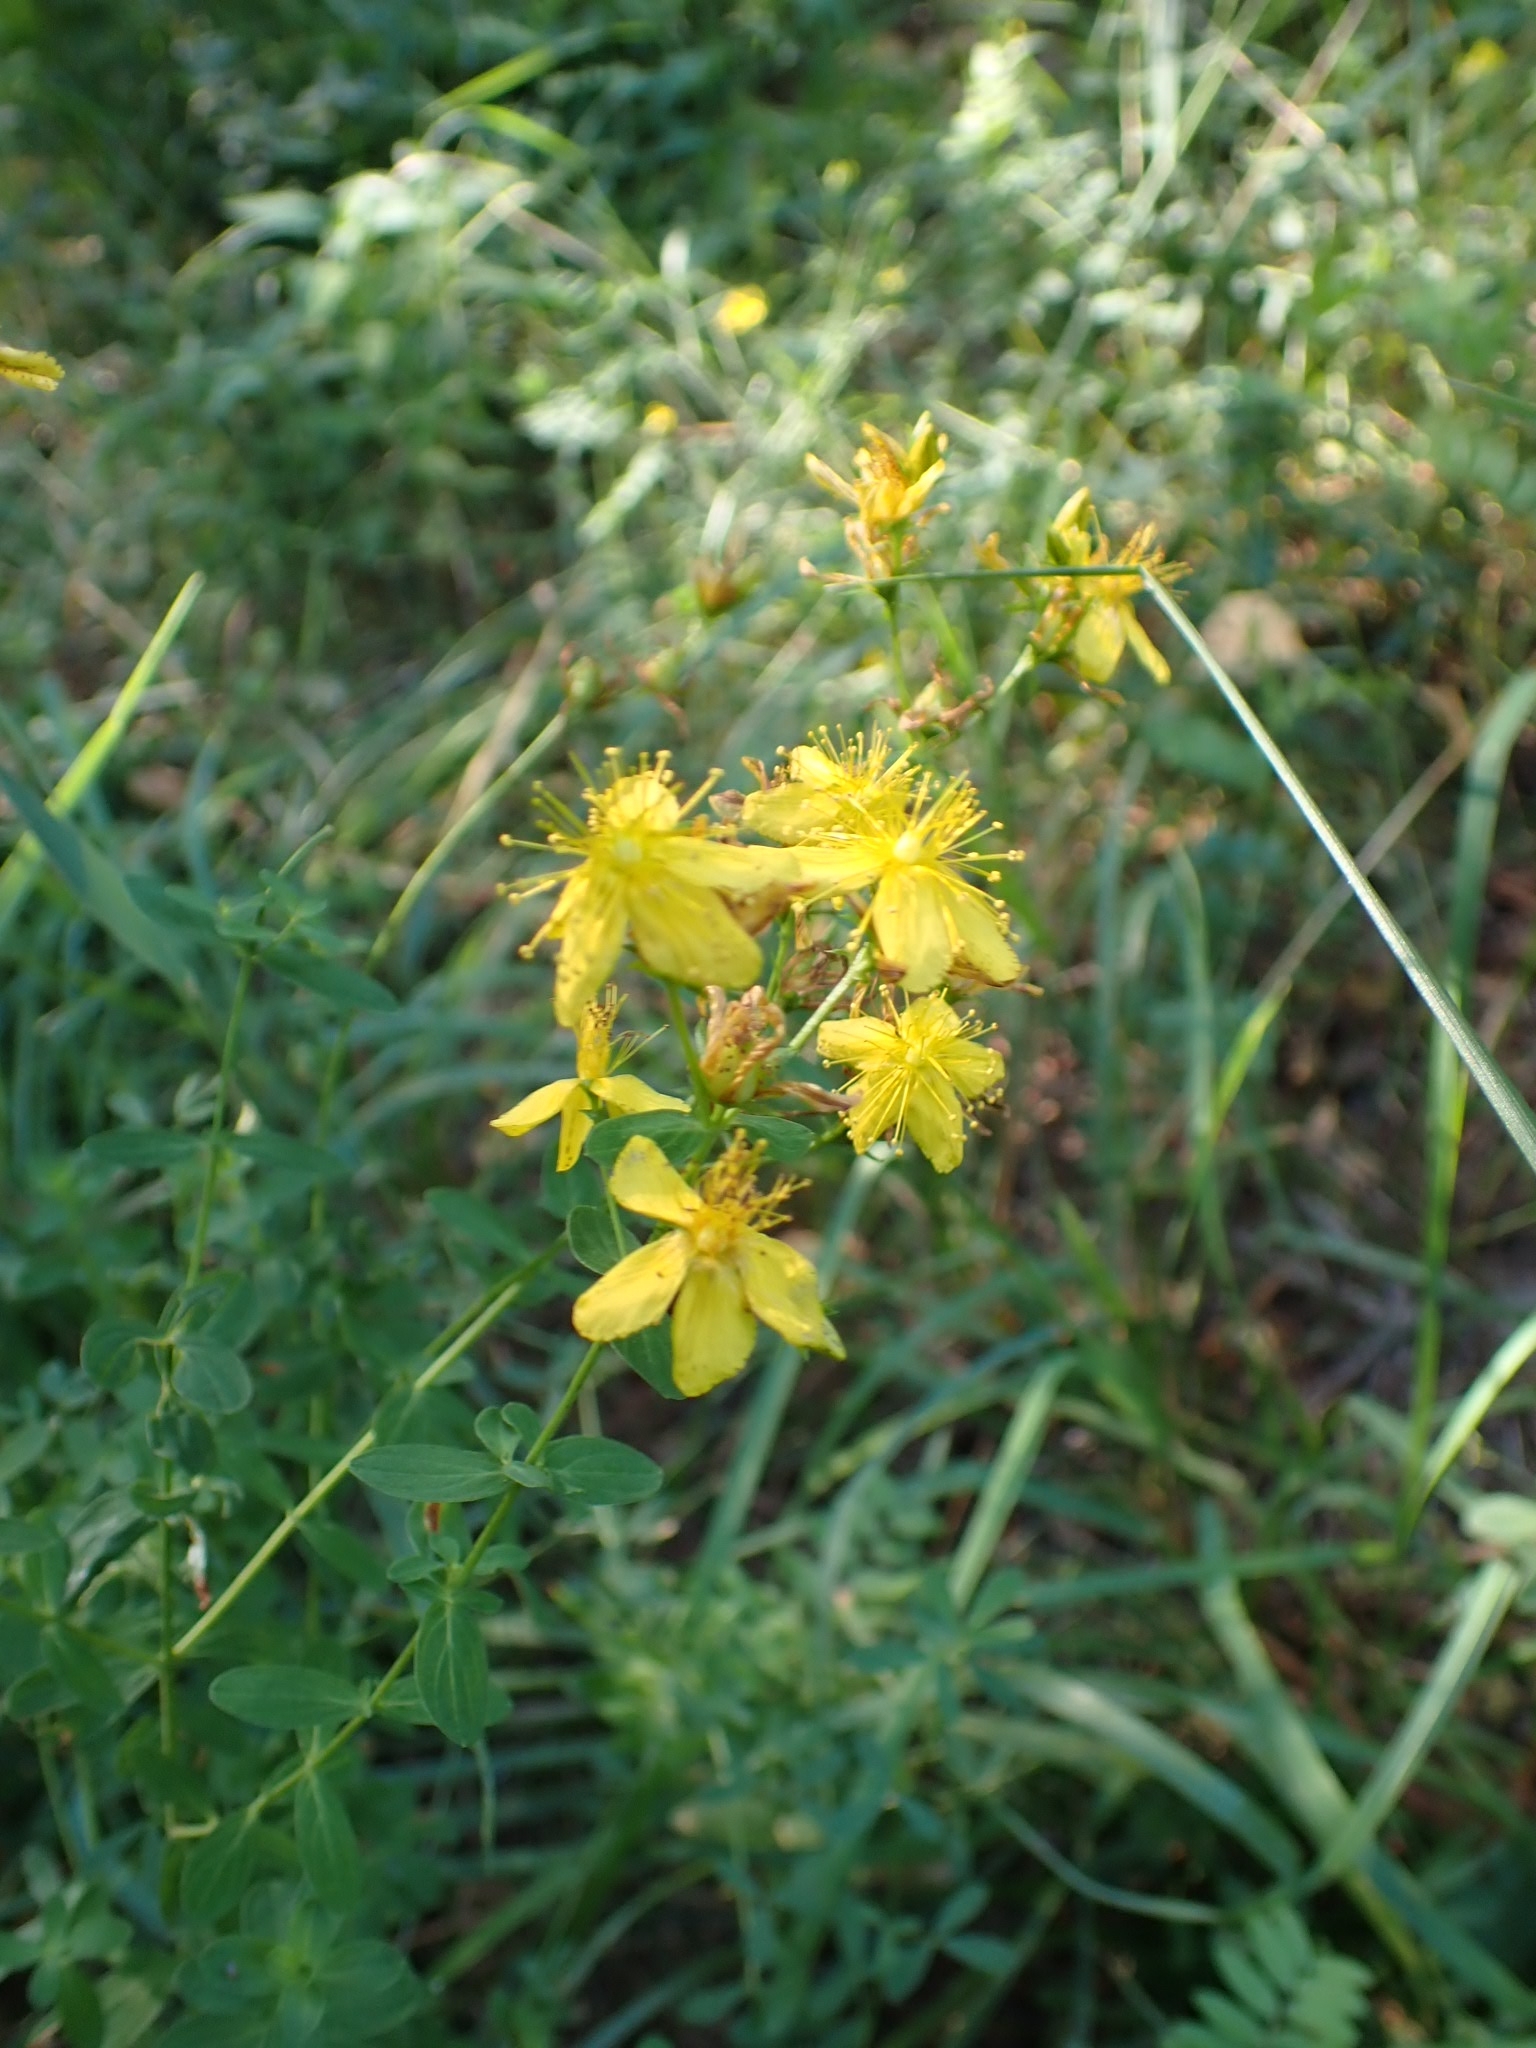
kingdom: Plantae
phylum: Tracheophyta
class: Magnoliopsida
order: Malpighiales
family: Hypericaceae
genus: Hypericum
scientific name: Hypericum perforatum
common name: Common st. johnswort
